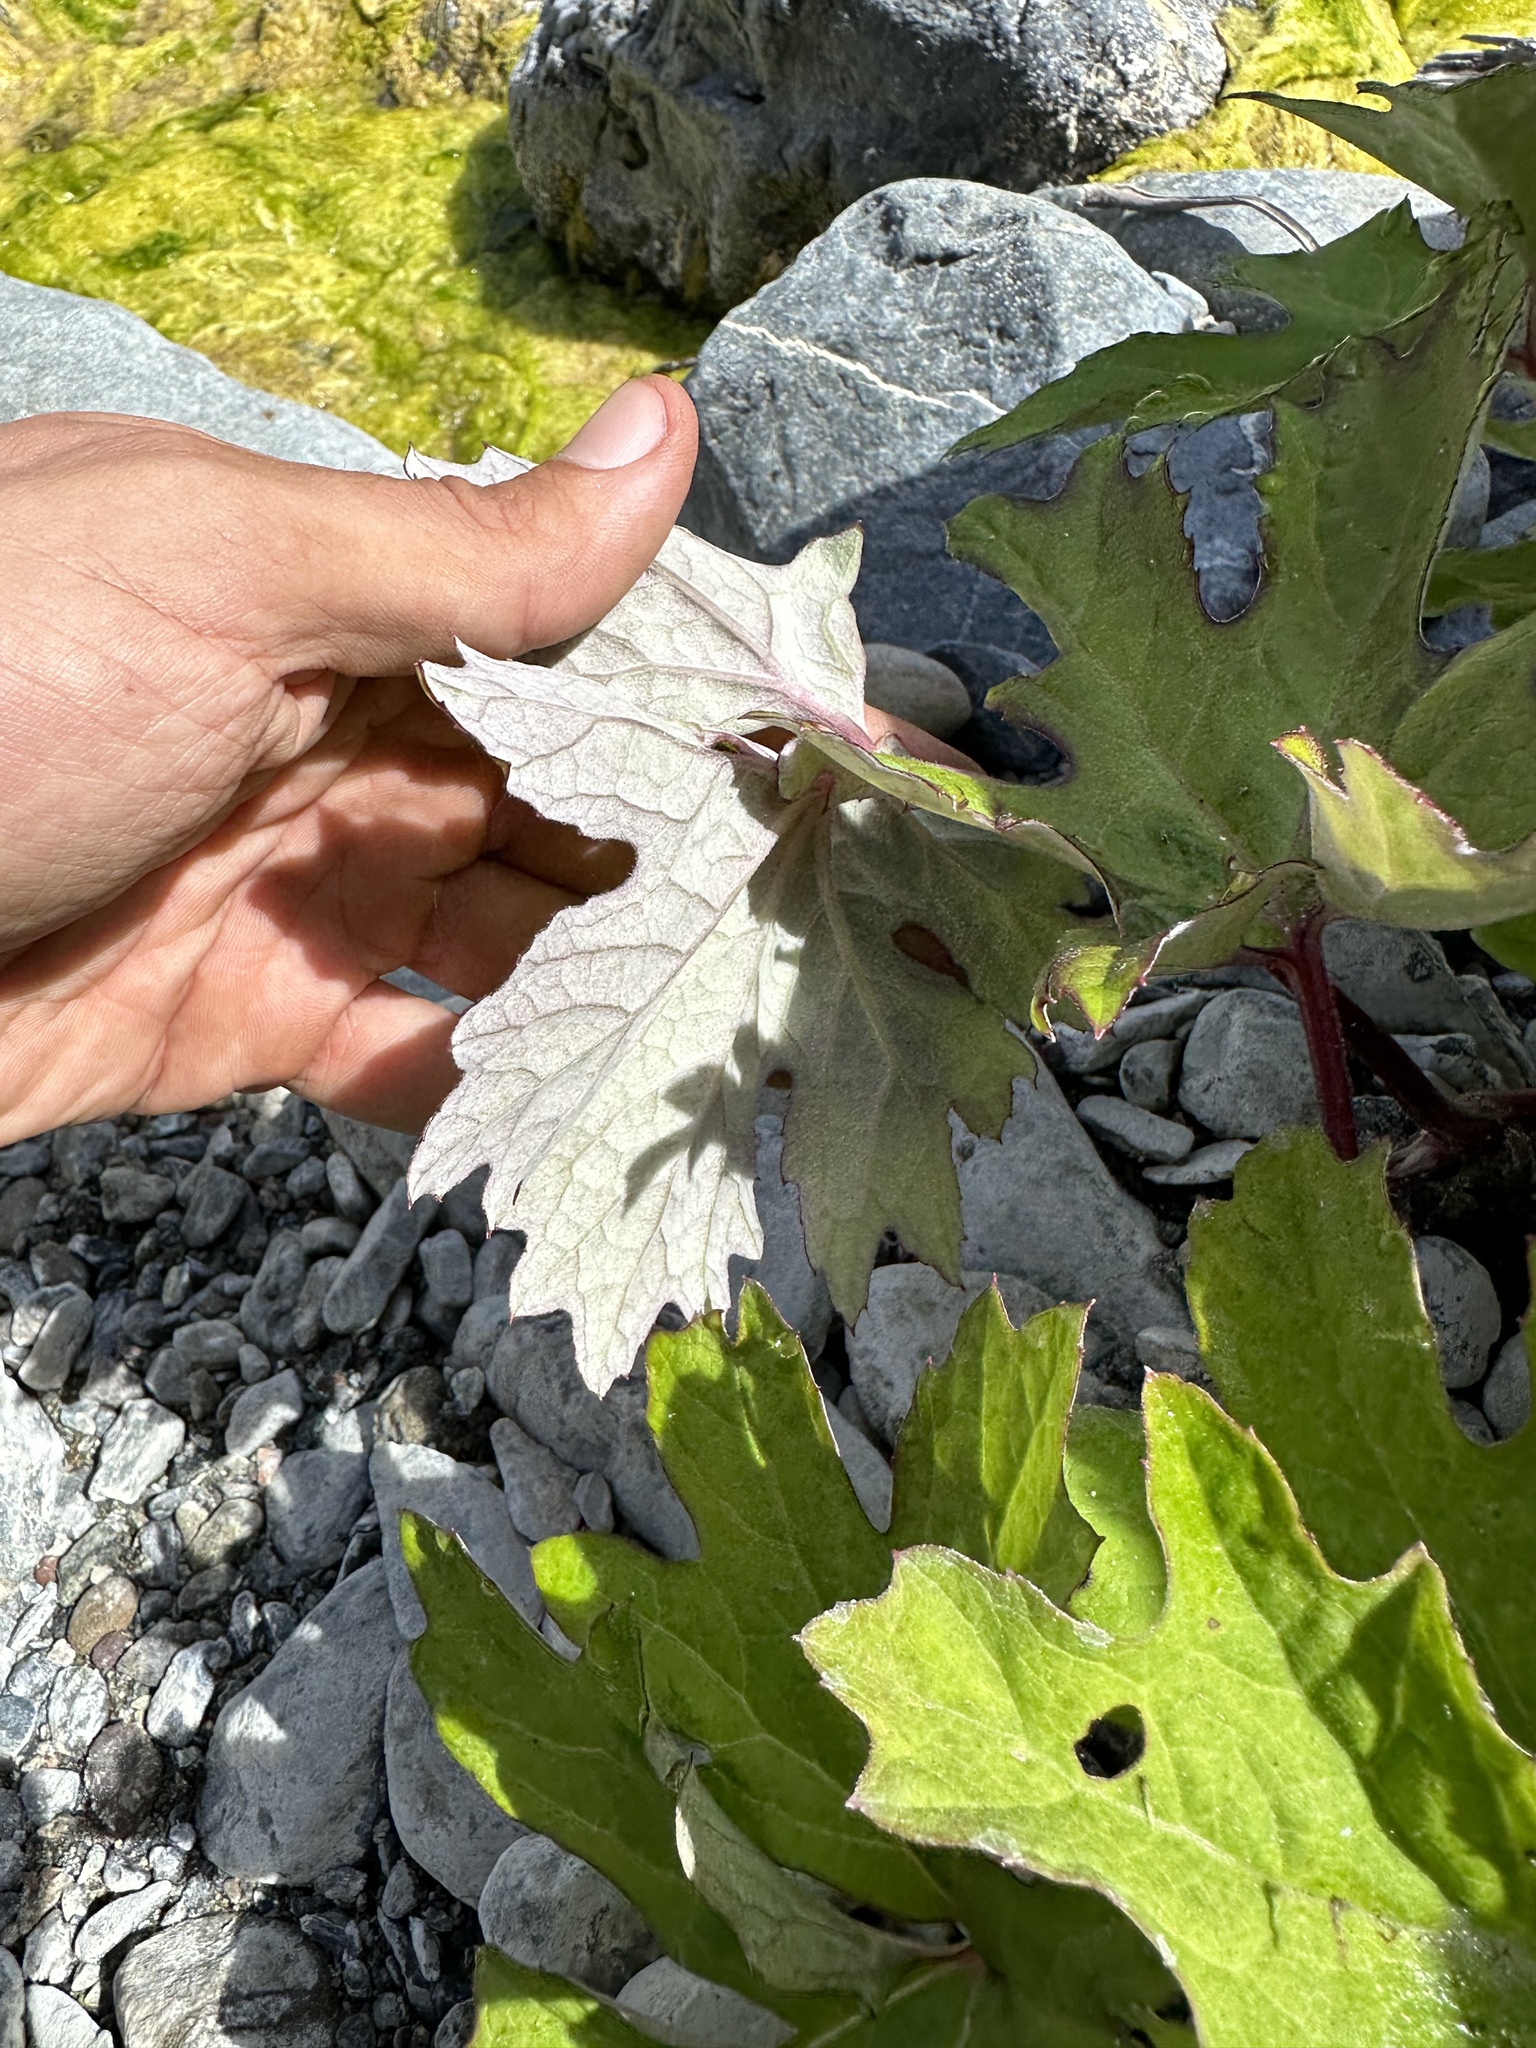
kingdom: Plantae
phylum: Tracheophyta
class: Magnoliopsida
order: Asterales
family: Asteraceae
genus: Petasites
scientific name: Petasites frigidus
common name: Arctic butterbur
